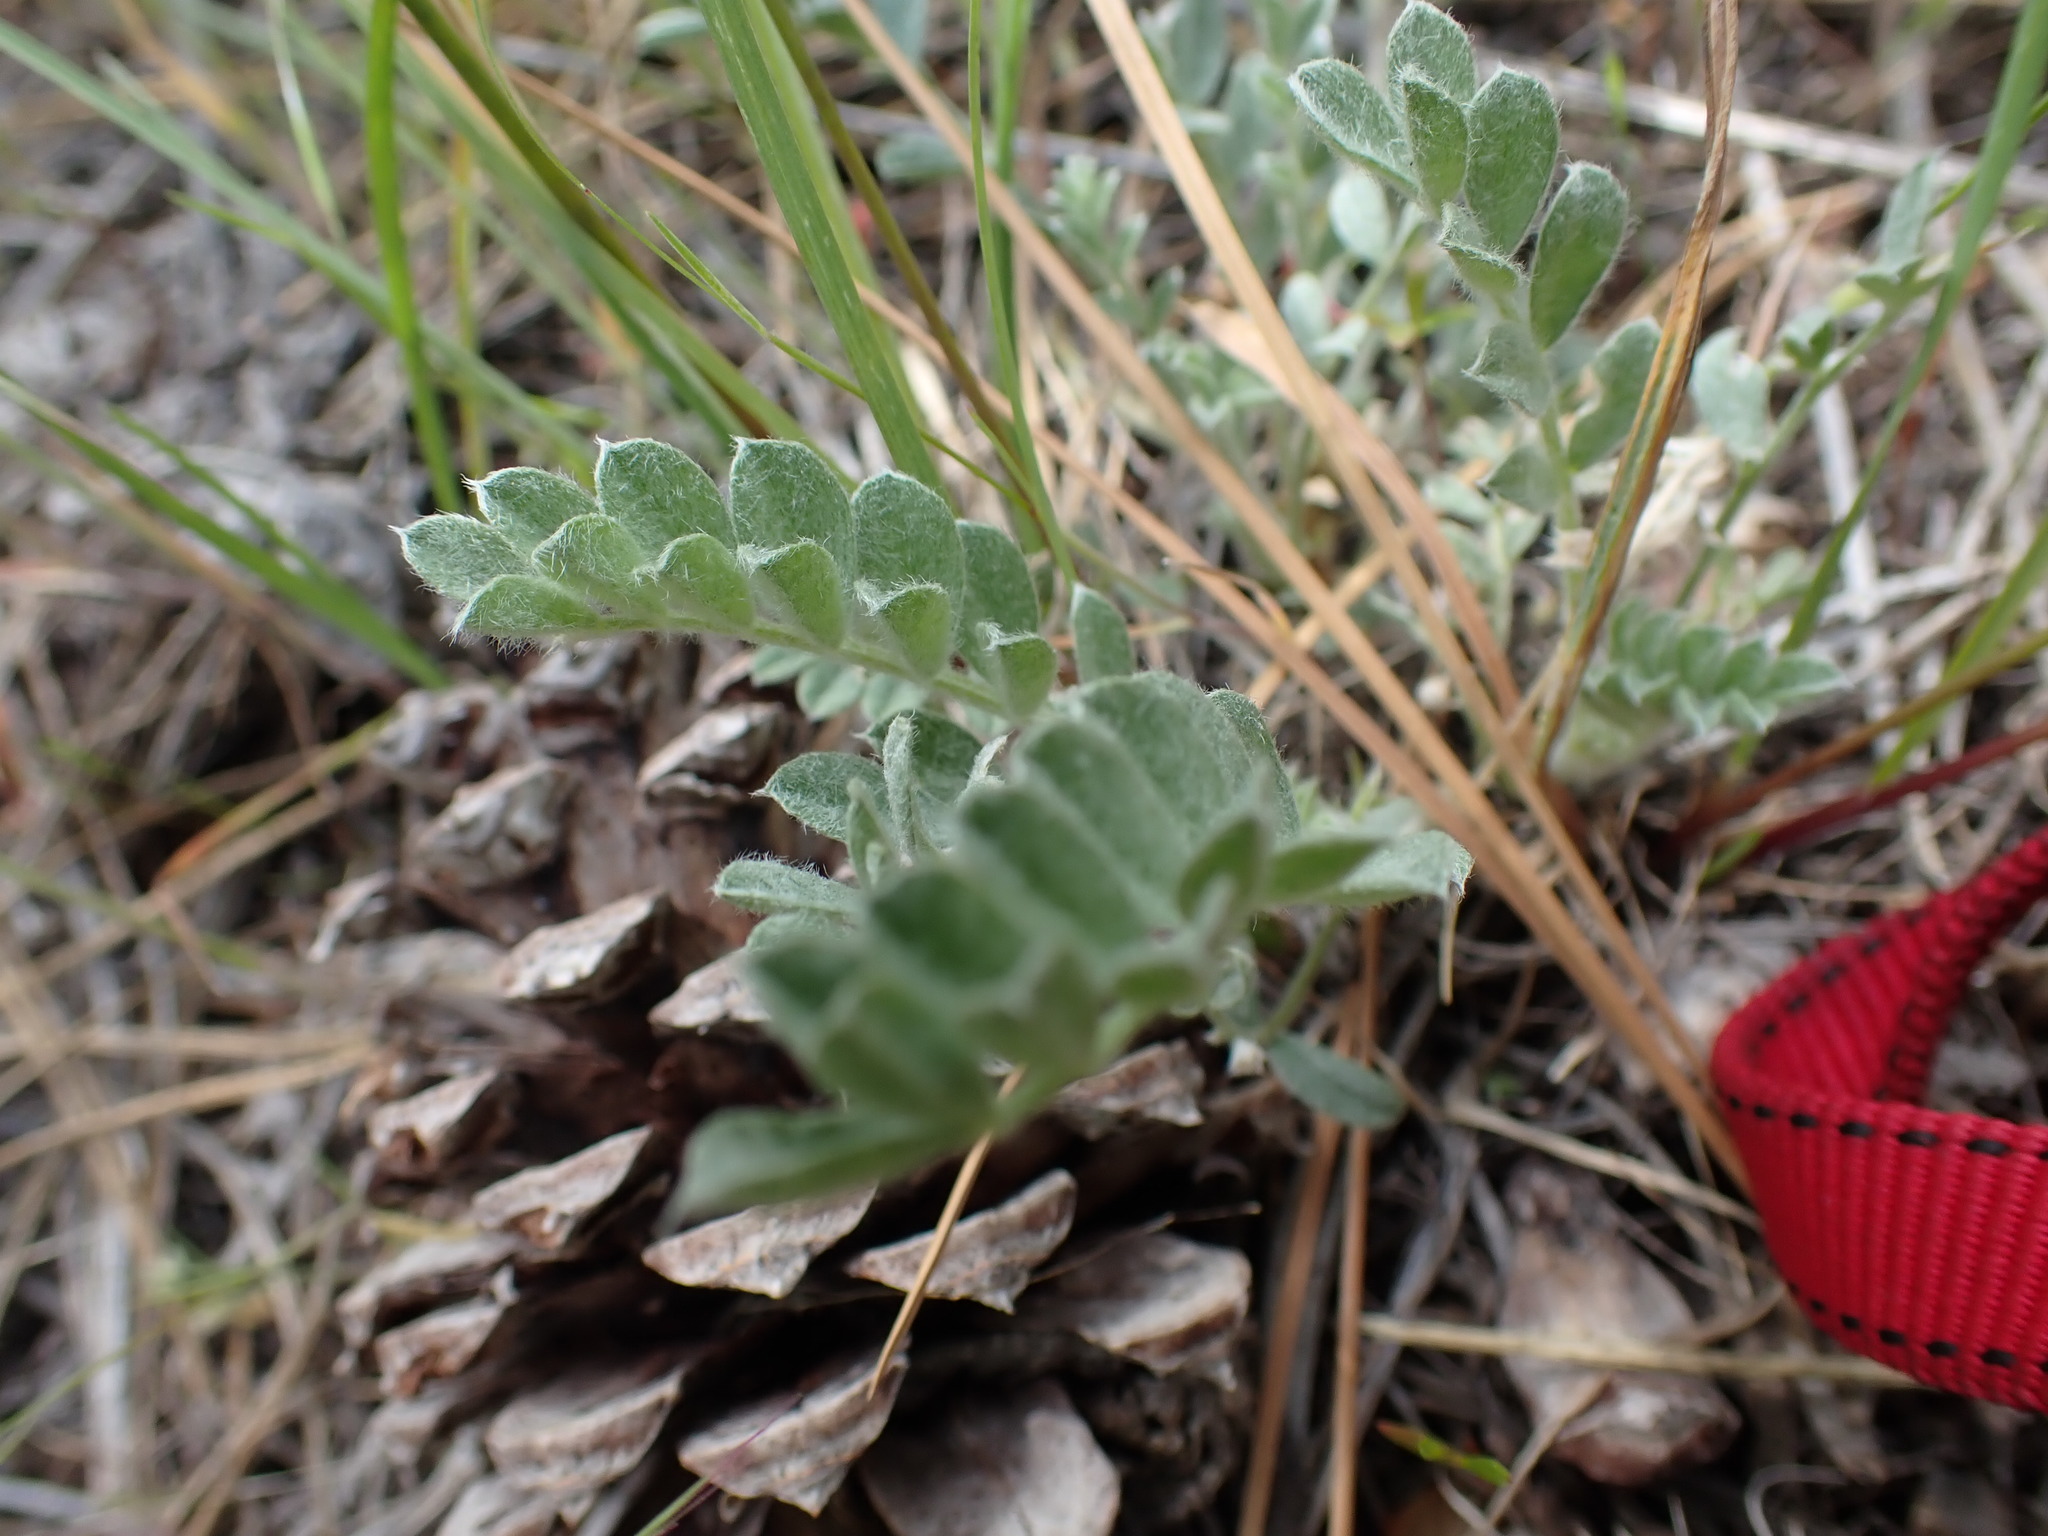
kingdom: Plantae
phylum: Tracheophyta
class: Magnoliopsida
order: Fabales
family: Fabaceae
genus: Astragalus
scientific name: Astragalus purshii
